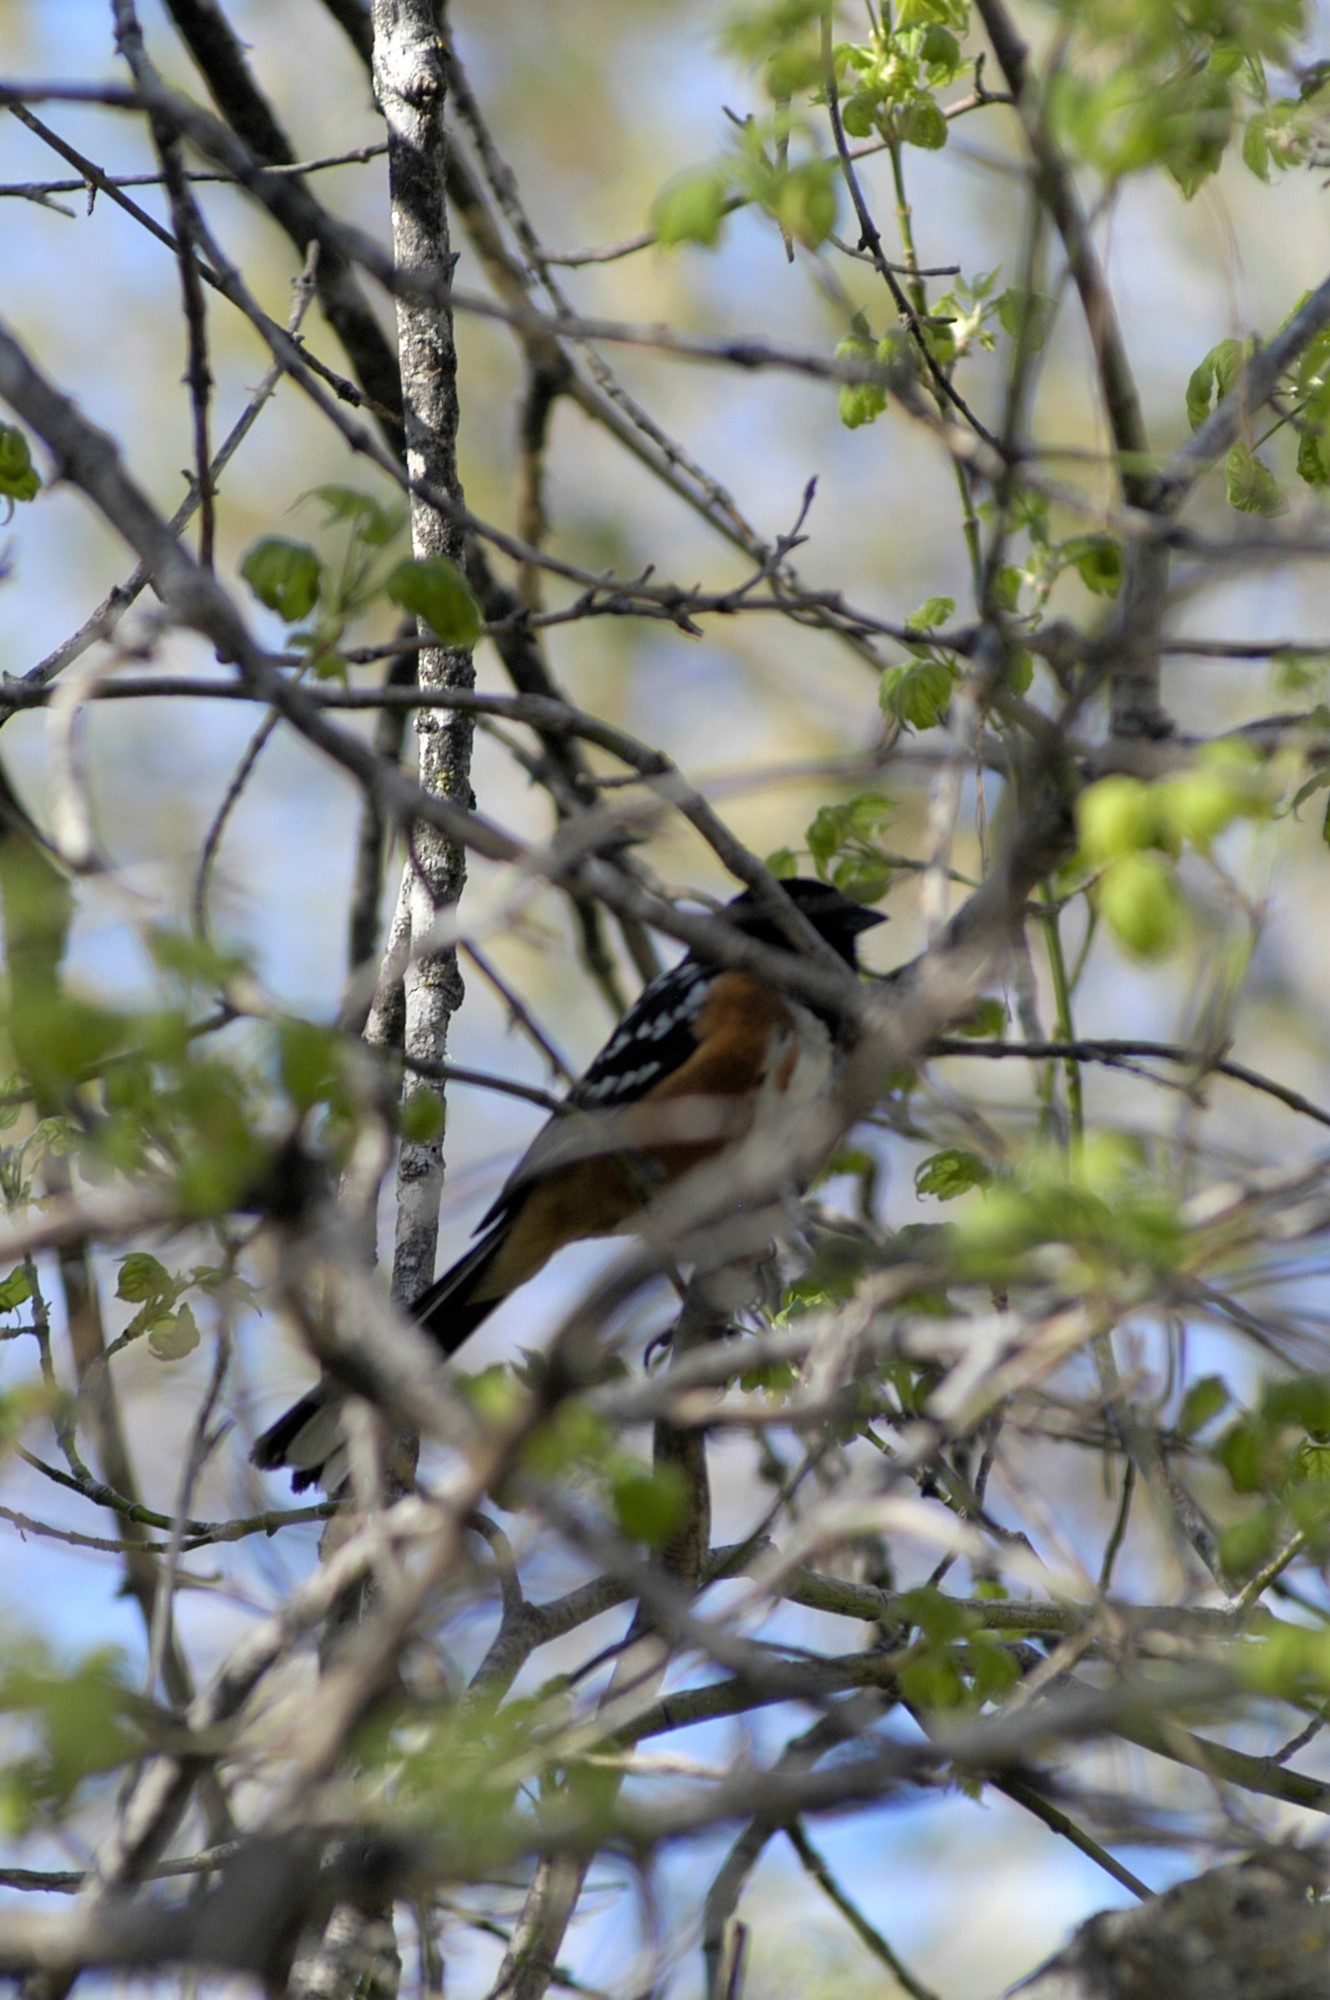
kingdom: Animalia
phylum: Chordata
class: Aves
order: Passeriformes
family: Passerellidae
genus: Pipilo
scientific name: Pipilo maculatus
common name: Spotted towhee
